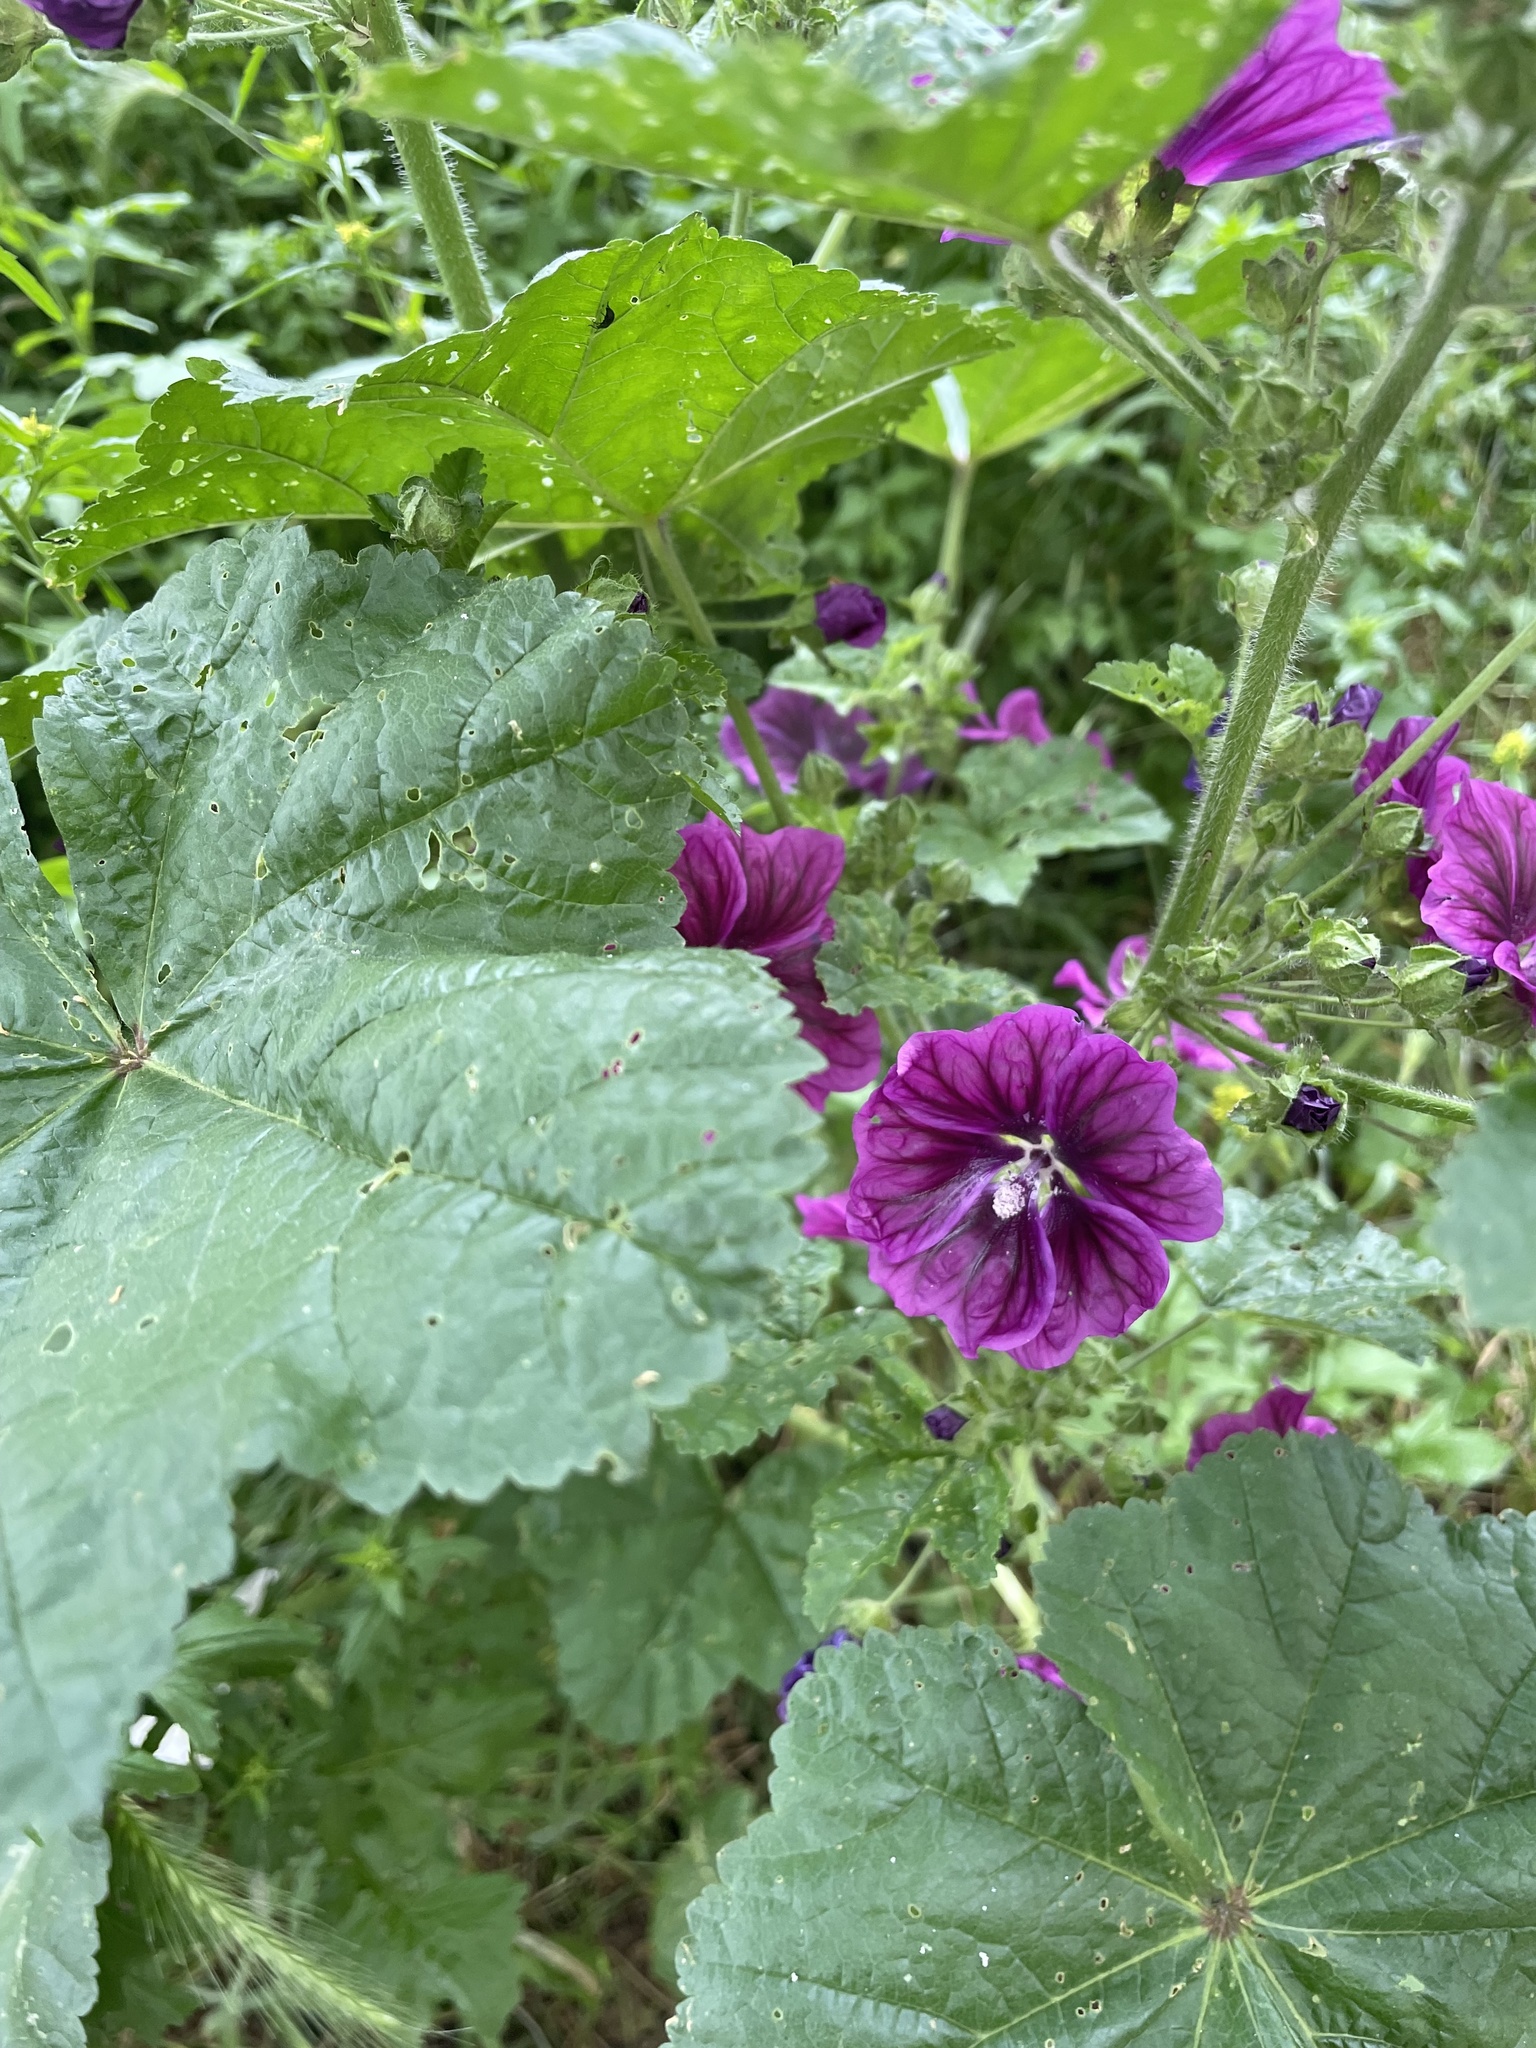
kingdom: Plantae
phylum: Tracheophyta
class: Magnoliopsida
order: Malvales
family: Malvaceae
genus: Malva
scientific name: Malva sylvestris
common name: Common mallow
